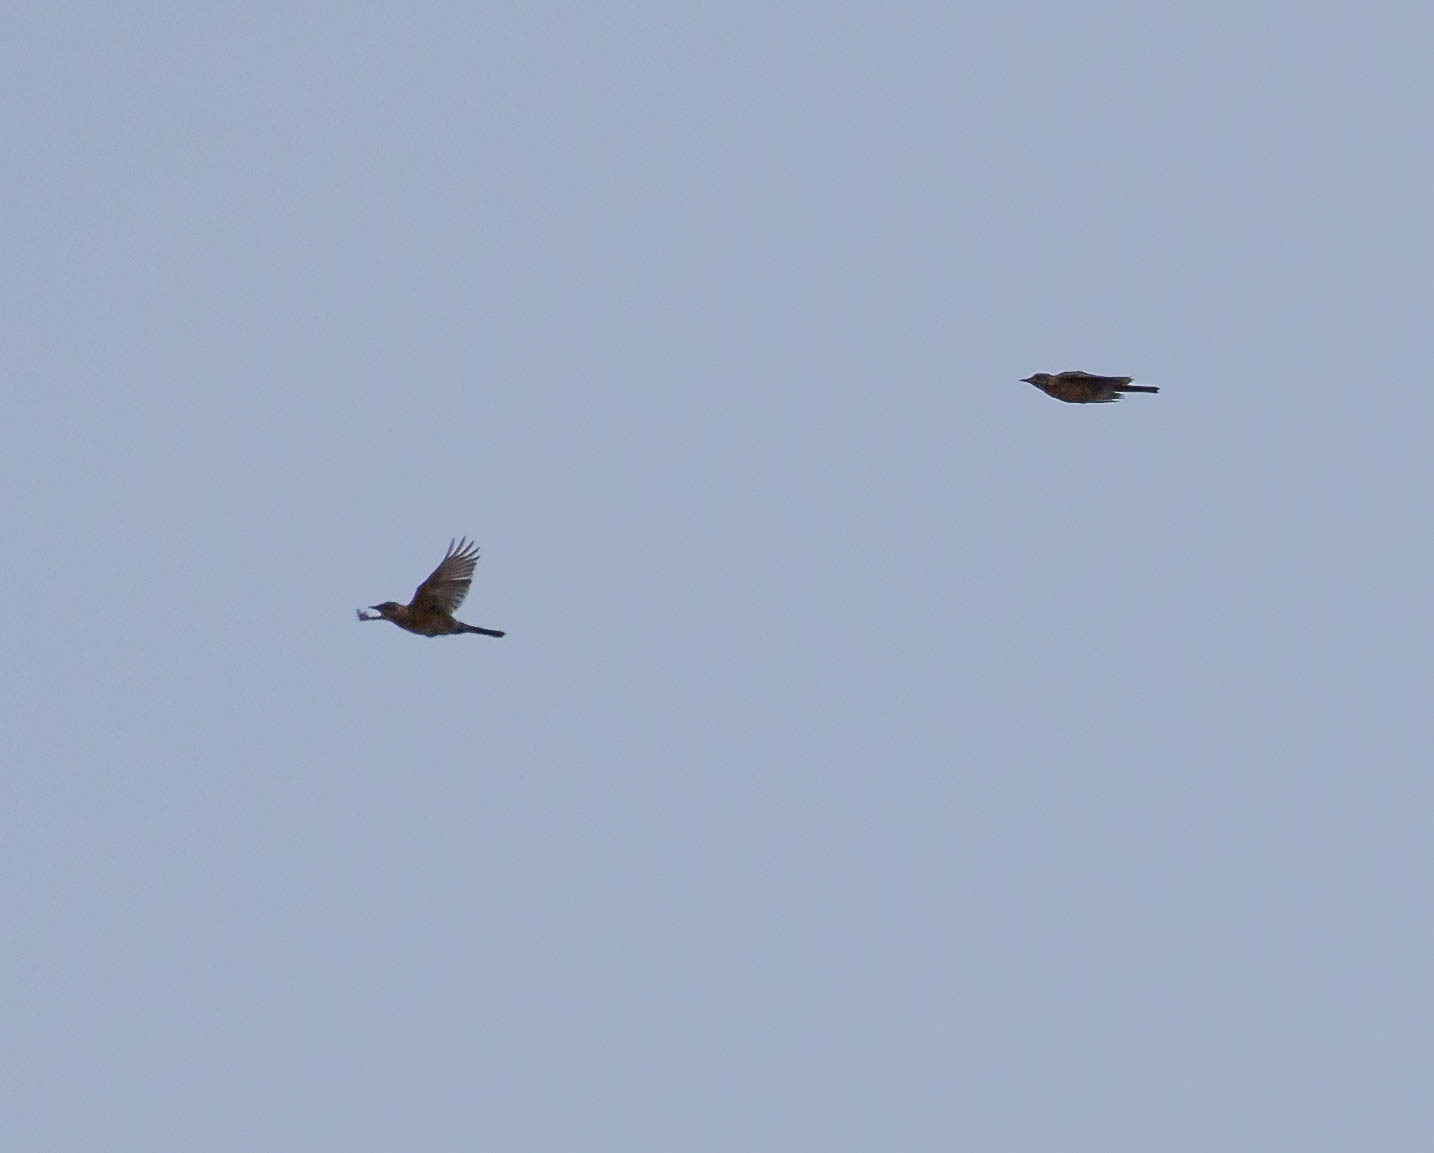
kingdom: Animalia
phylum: Chordata
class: Aves
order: Passeriformes
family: Turdidae
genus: Turdus
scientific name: Turdus migratorius
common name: American robin
